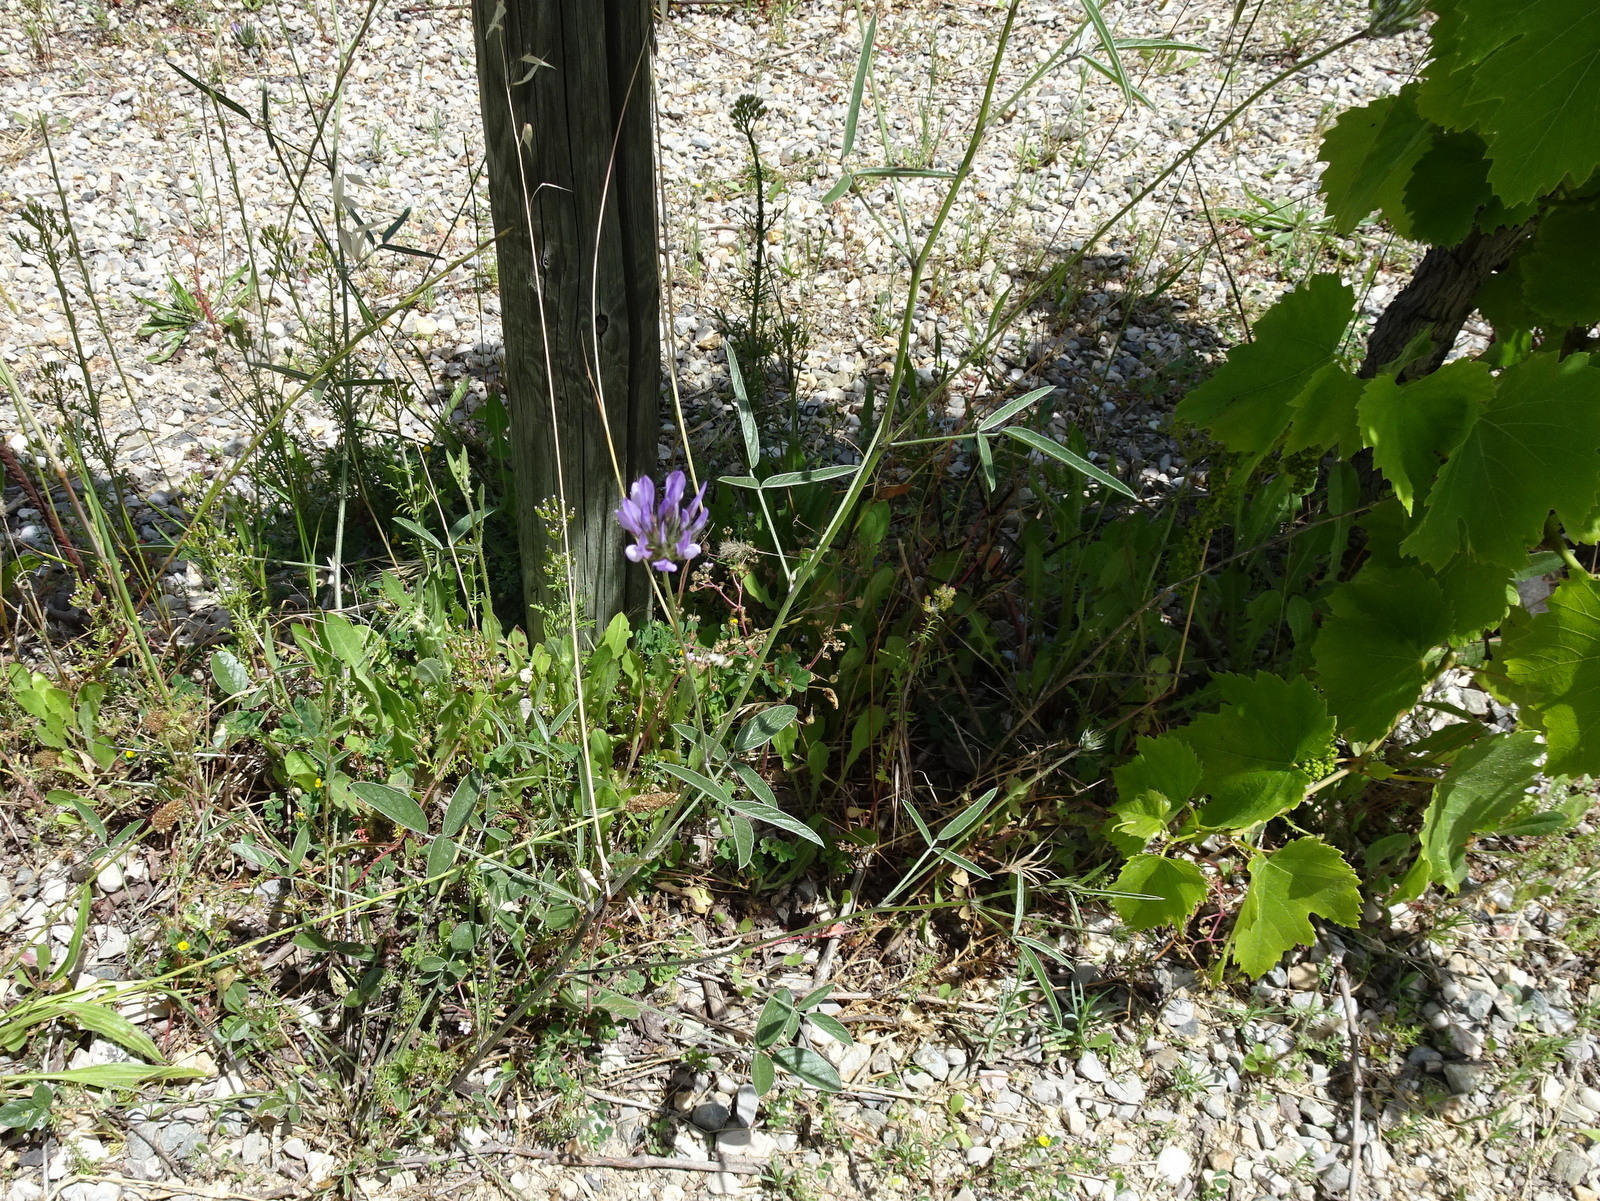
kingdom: Plantae
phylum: Tracheophyta
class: Magnoliopsida
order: Fabales
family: Fabaceae
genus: Bituminaria
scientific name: Bituminaria bituminosa
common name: Arabian pea
